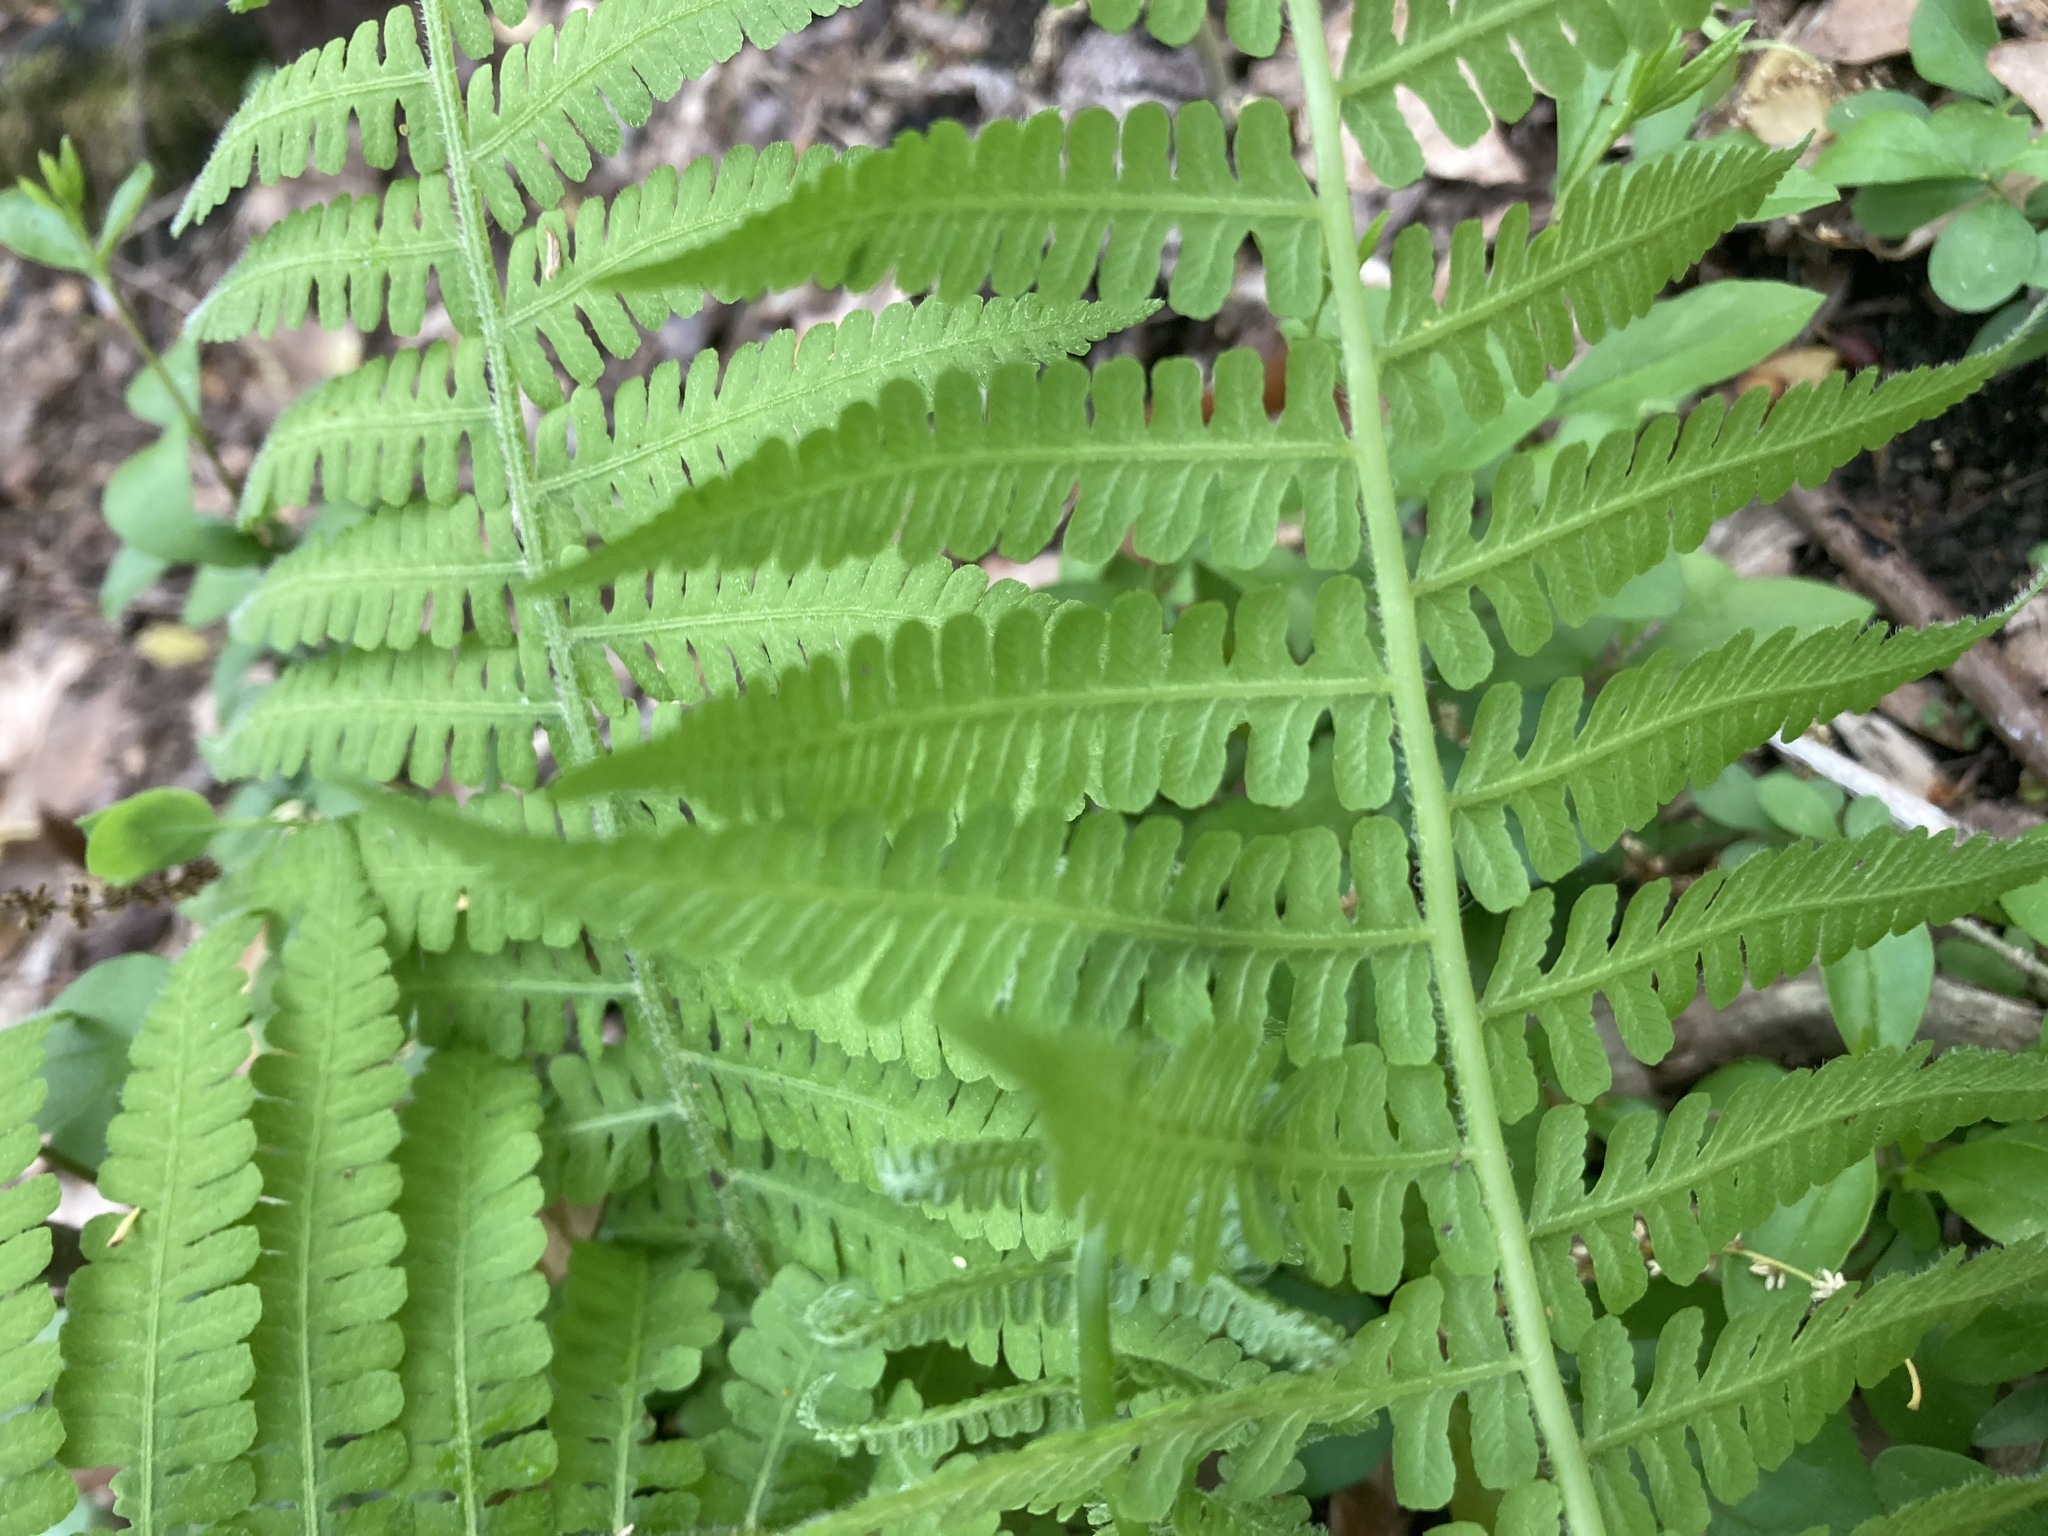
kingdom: Plantae
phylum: Tracheophyta
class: Polypodiopsida
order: Polypodiales
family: Athyriaceae
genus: Deparia
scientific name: Deparia acrostichoides
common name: Silver false spleenwort
